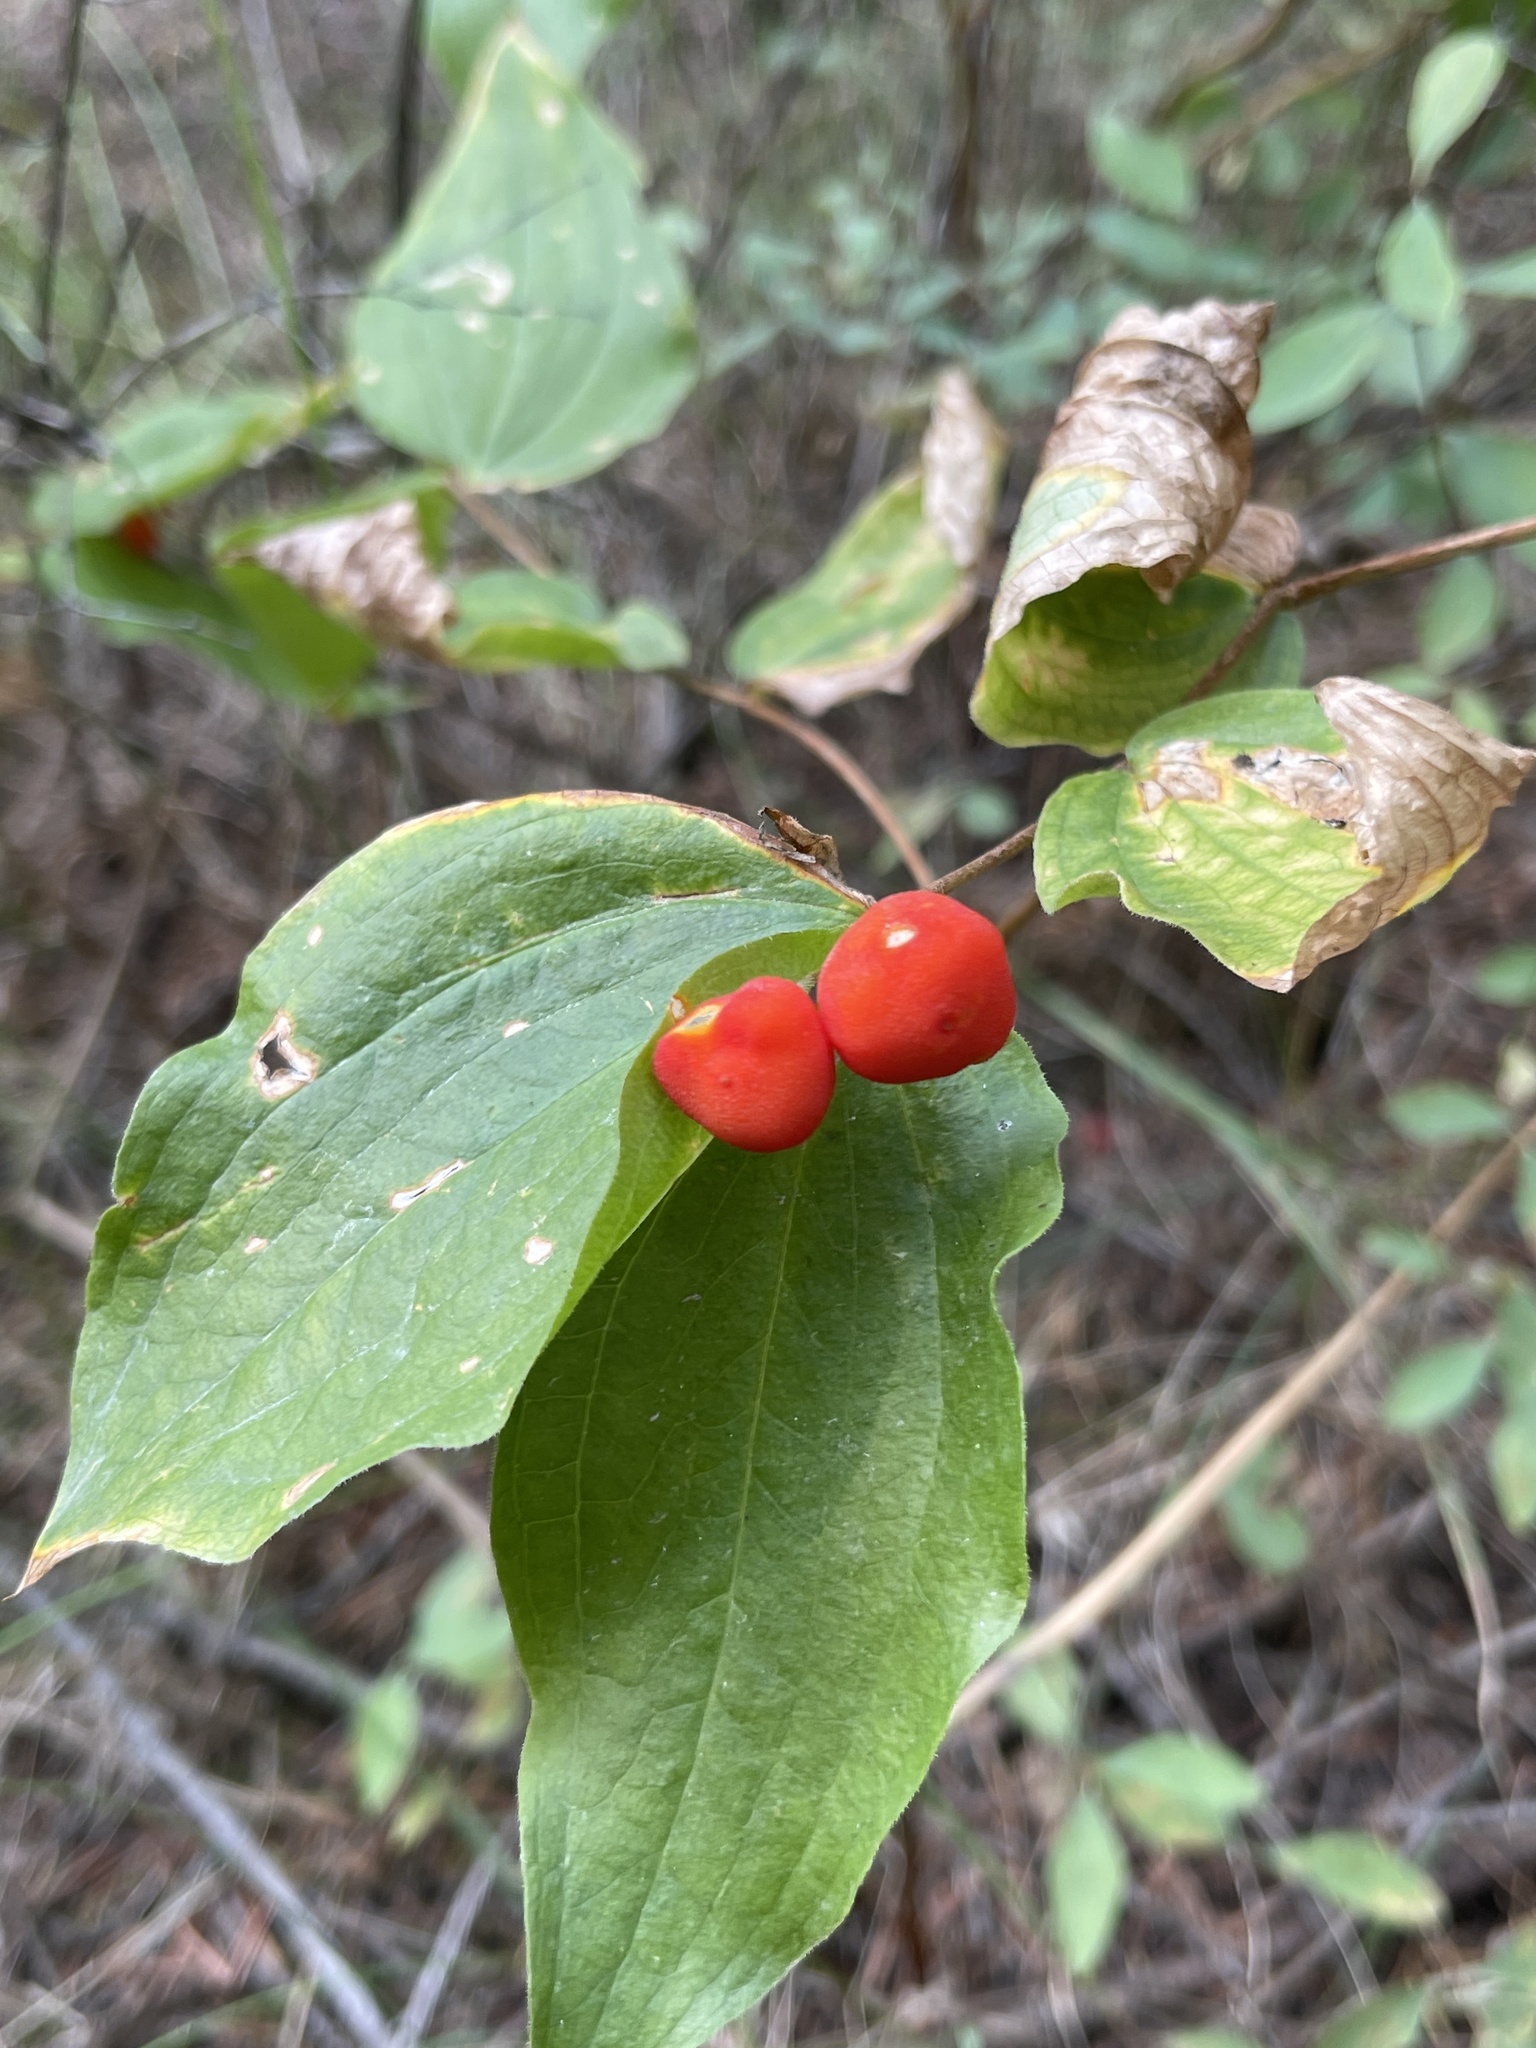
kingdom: Plantae
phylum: Tracheophyta
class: Liliopsida
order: Liliales
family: Liliaceae
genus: Prosartes
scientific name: Prosartes trachycarpa
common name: Rough-fruit fairy-bells
